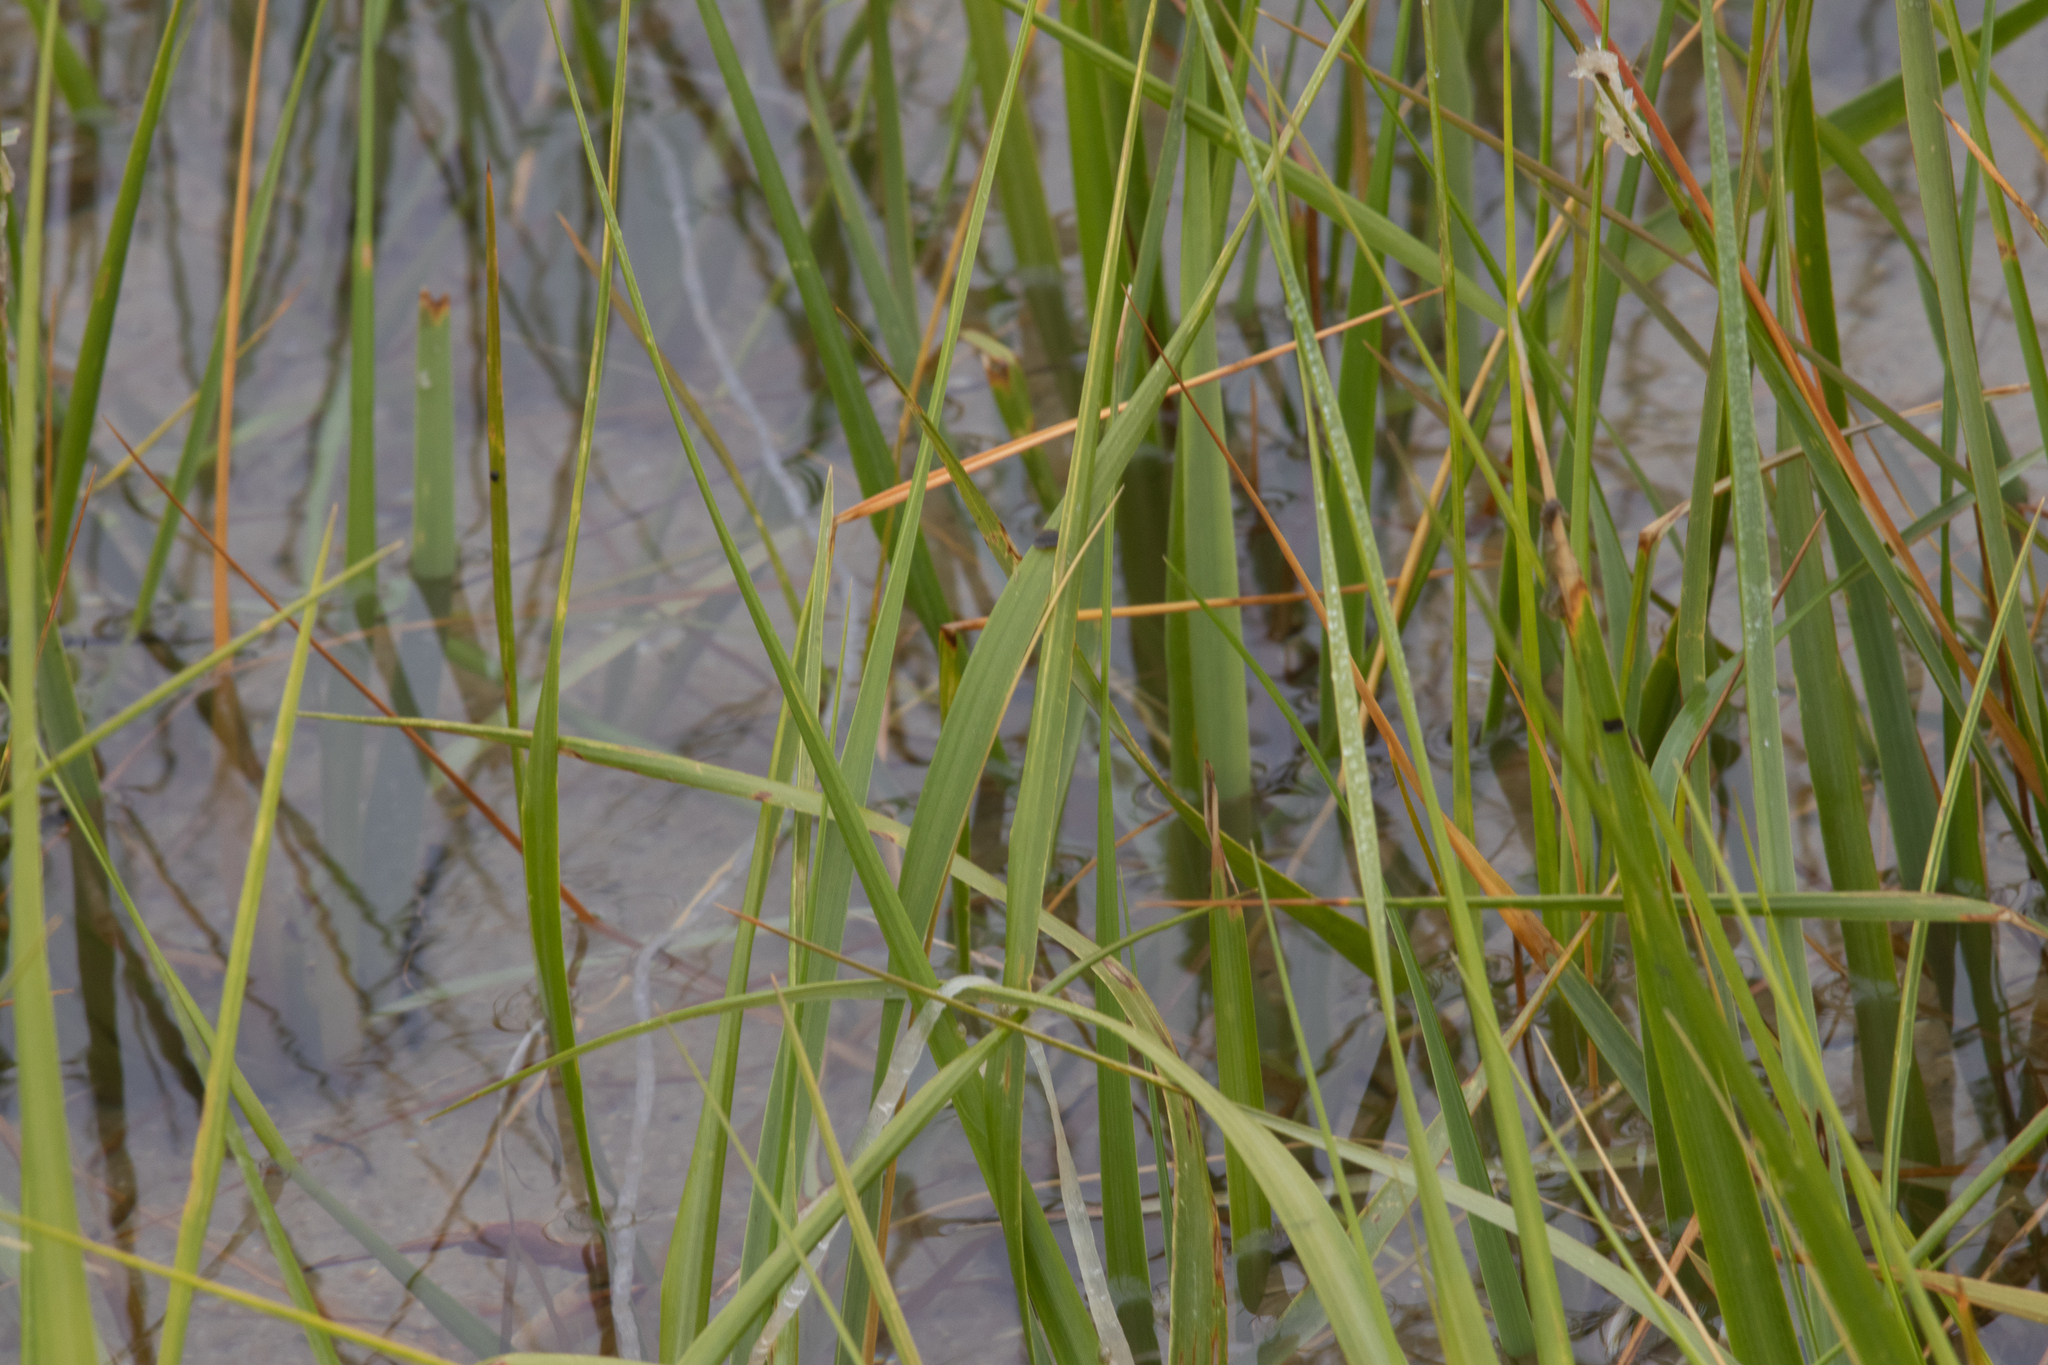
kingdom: Plantae
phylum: Tracheophyta
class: Liliopsida
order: Poales
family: Poaceae
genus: Sporobolus
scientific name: Sporobolus alterniflorus
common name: Atlantic cordgrass
